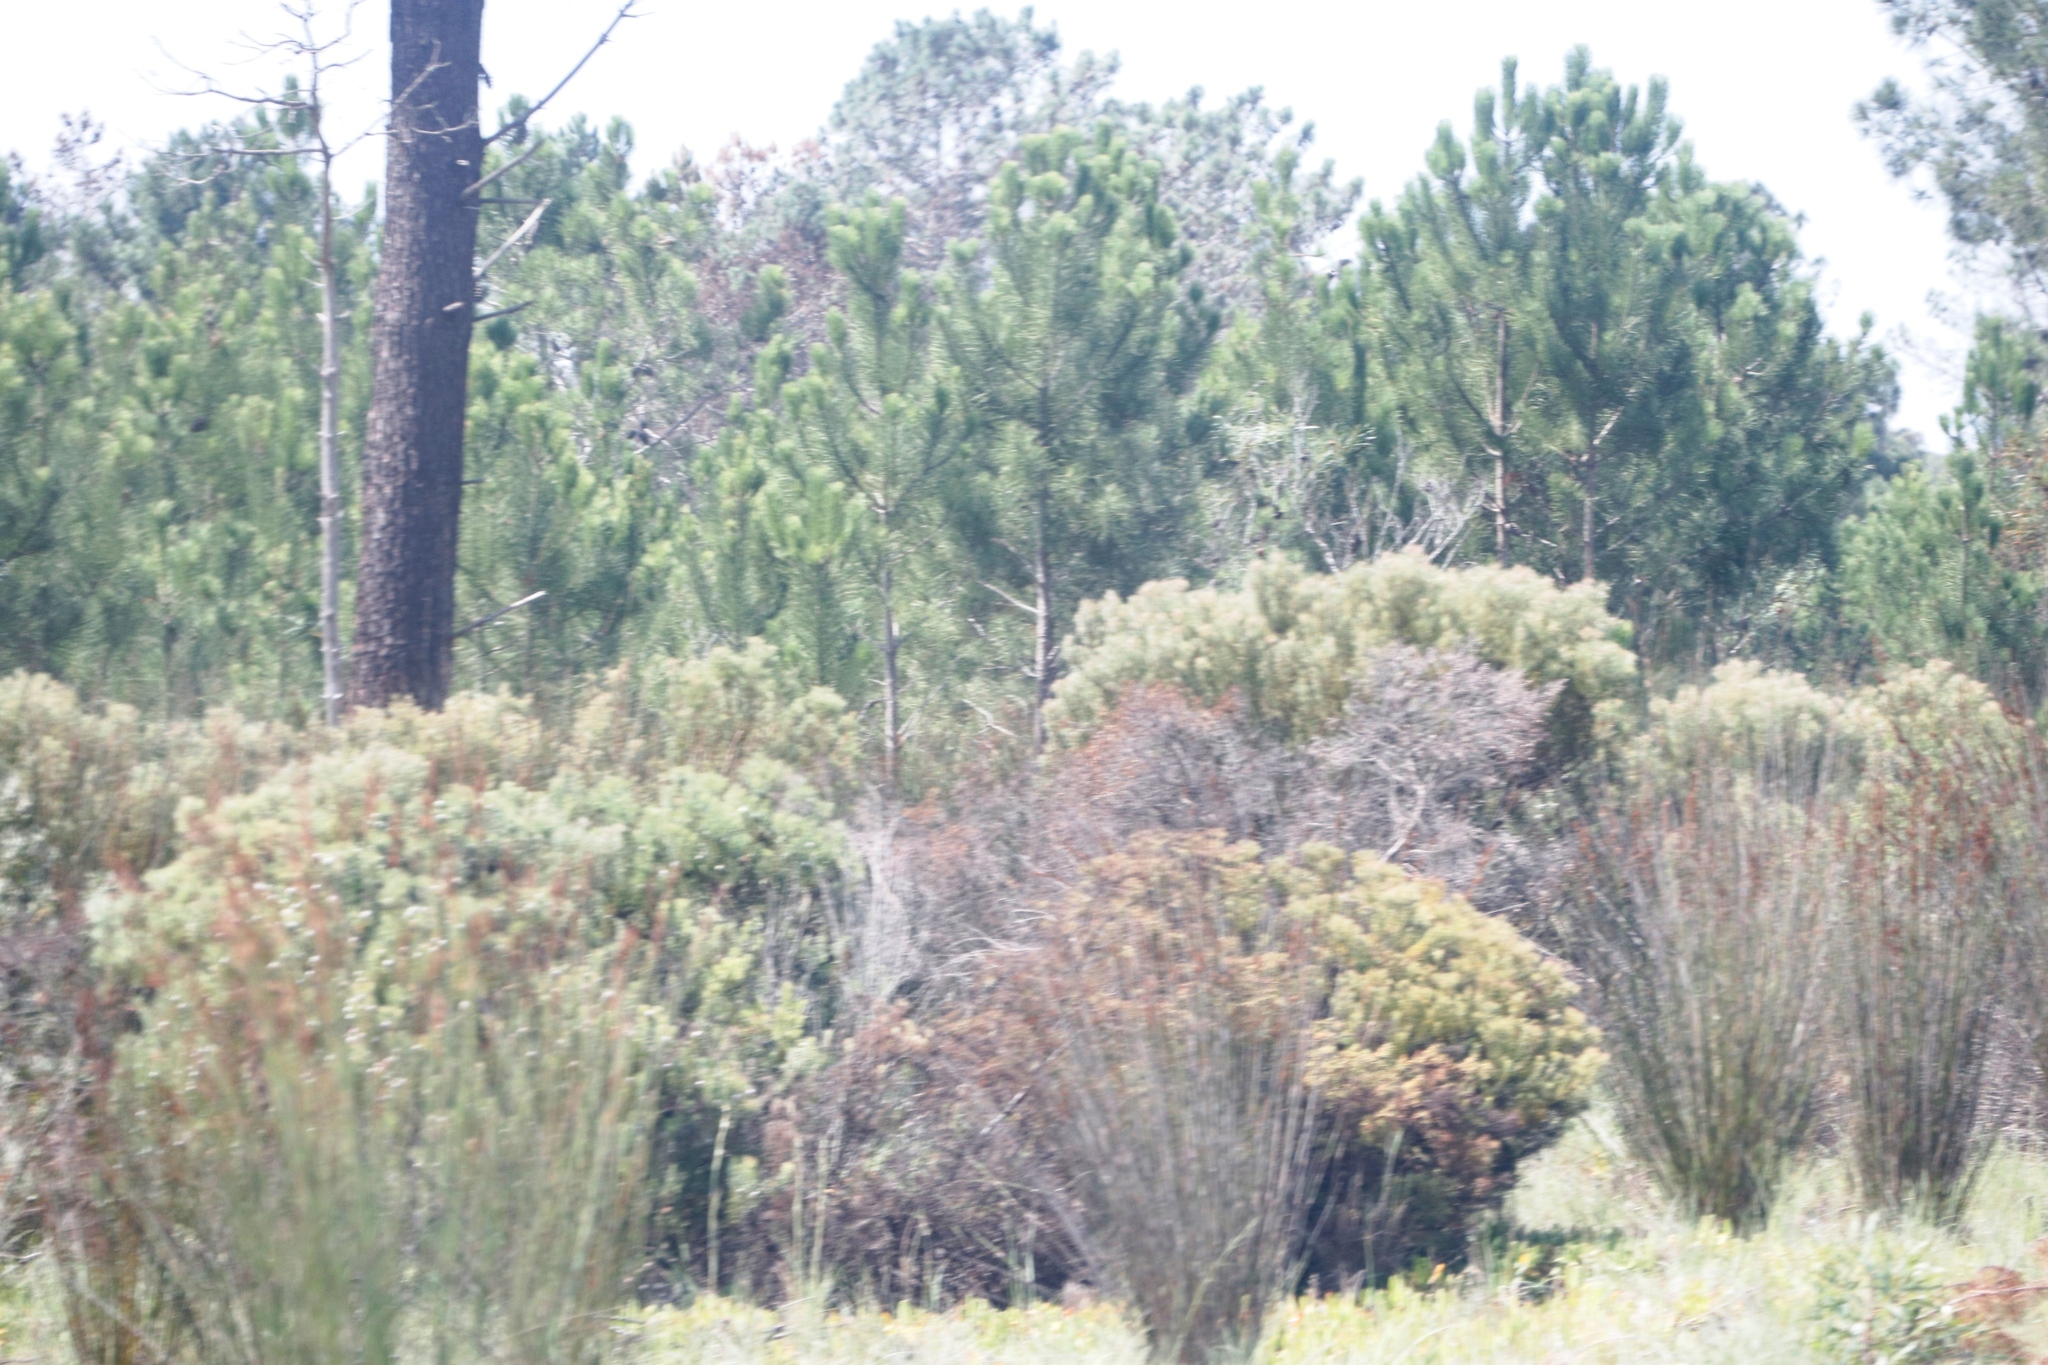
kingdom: Plantae
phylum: Tracheophyta
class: Magnoliopsida
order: Proteales
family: Proteaceae
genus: Leucadendron
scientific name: Leucadendron galpinii
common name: Hairless conebush
